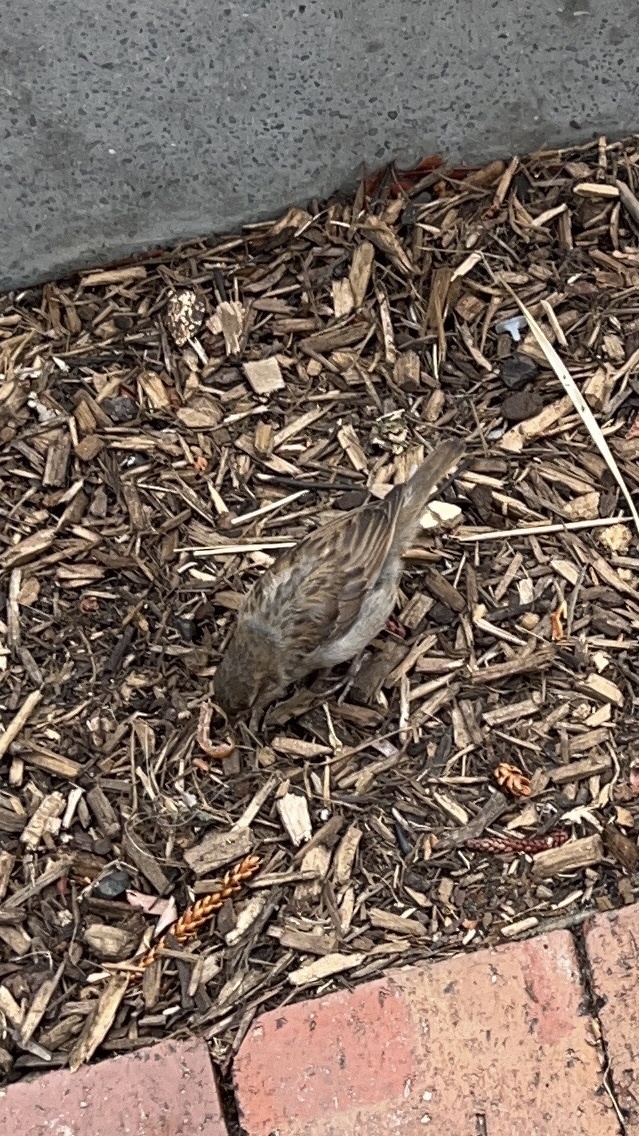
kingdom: Animalia
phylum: Chordata
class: Aves
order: Passeriformes
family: Passeridae
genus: Passer
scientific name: Passer domesticus
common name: House sparrow
